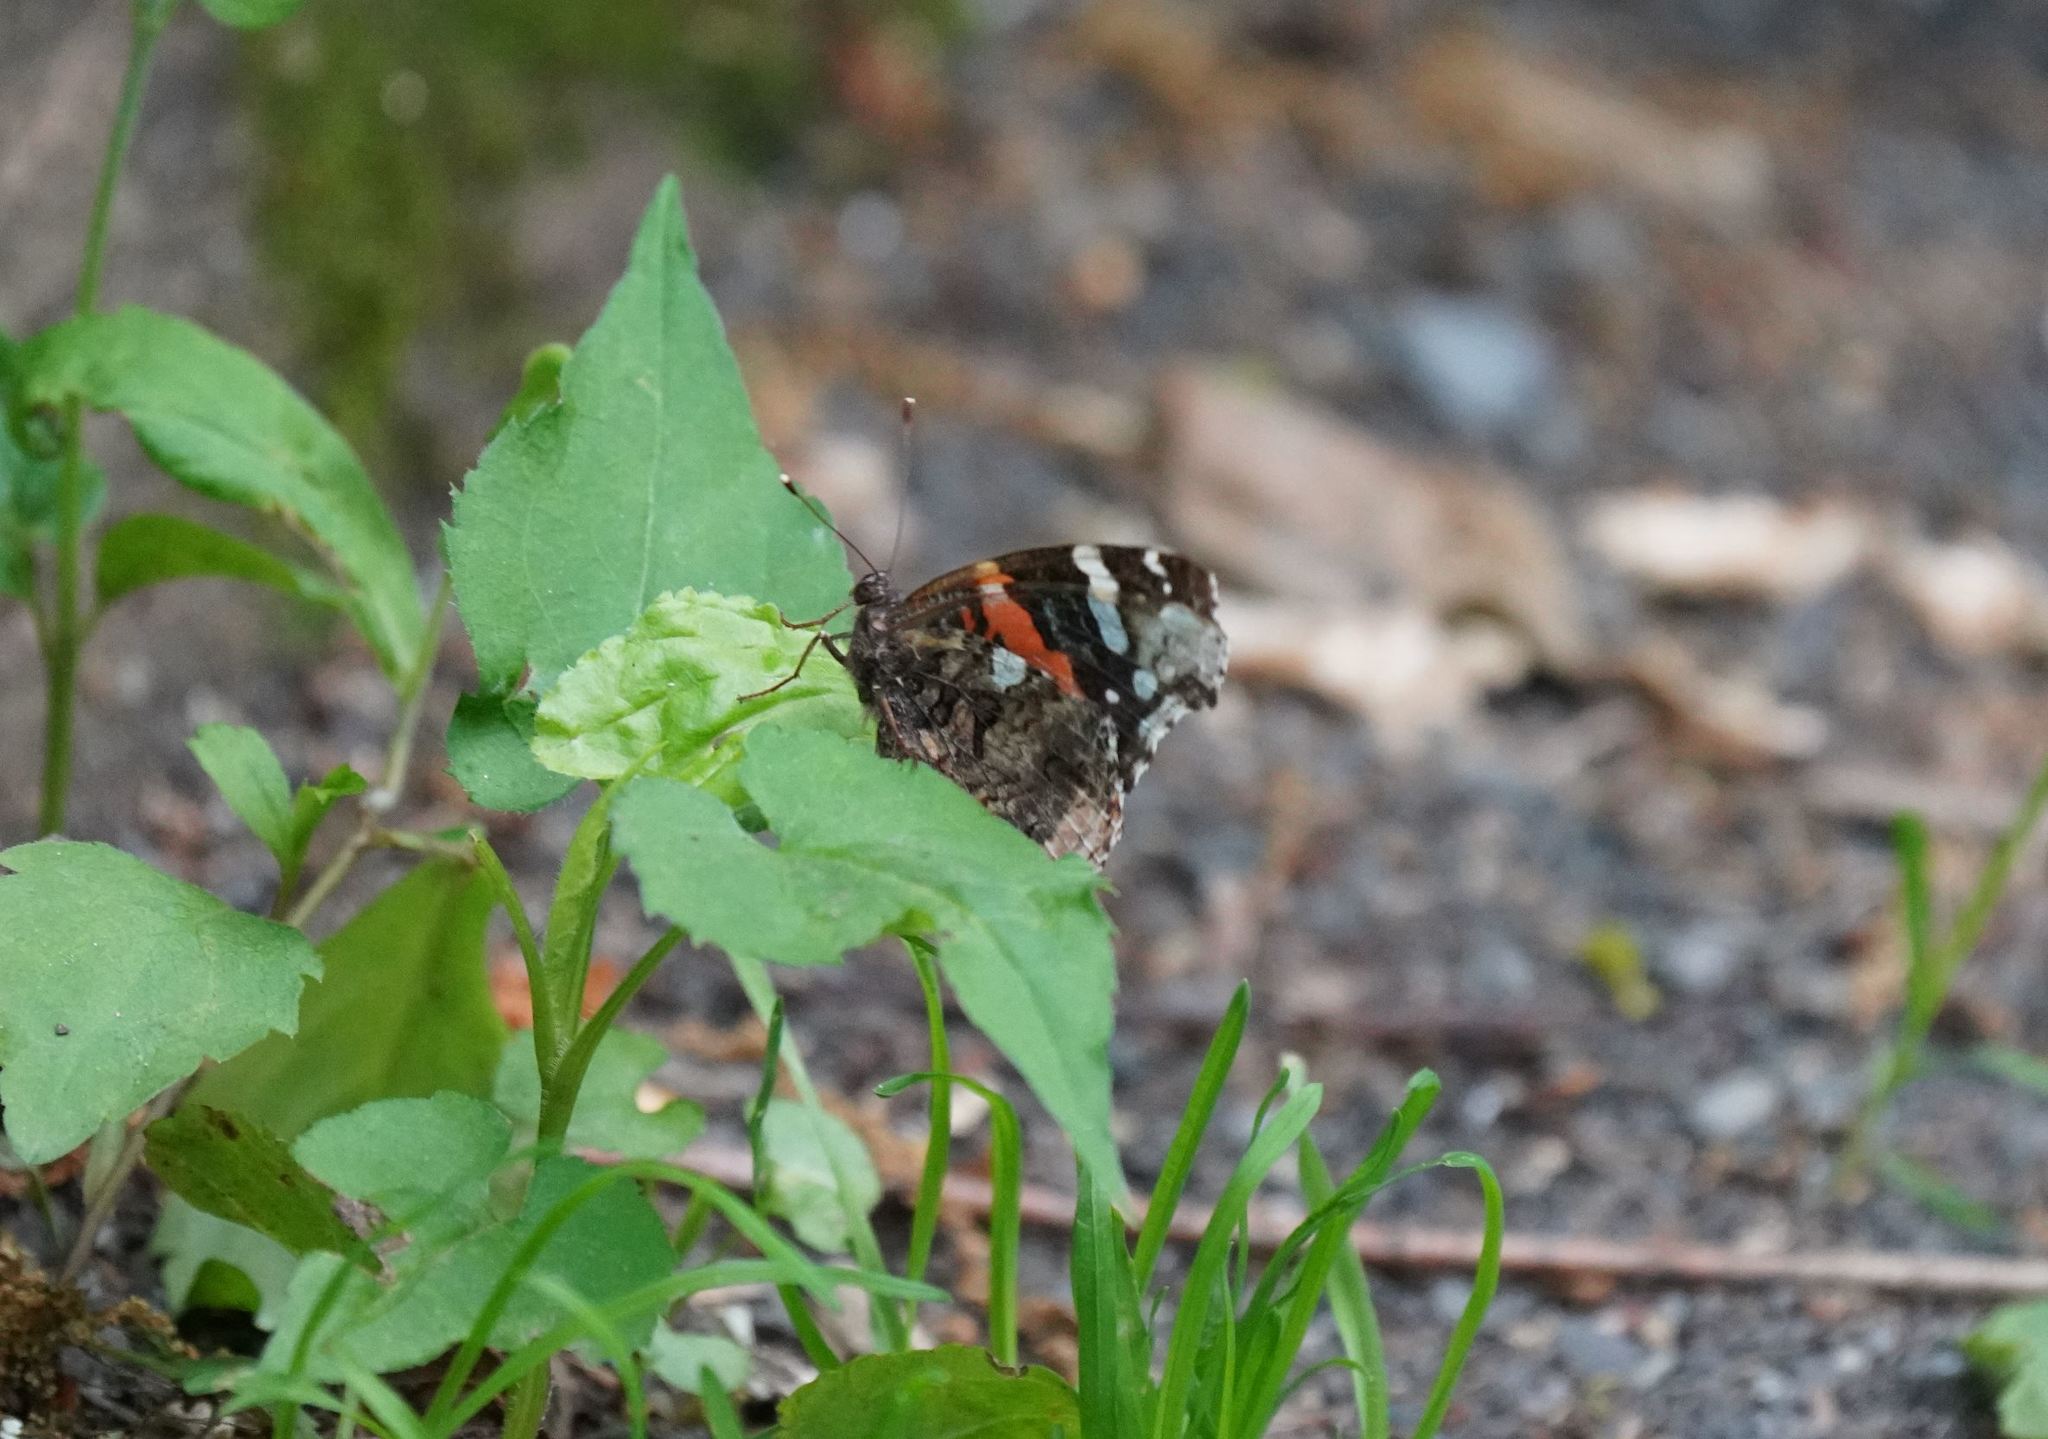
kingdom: Animalia
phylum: Arthropoda
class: Insecta
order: Lepidoptera
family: Nymphalidae
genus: Vanessa
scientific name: Vanessa atalanta
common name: Red admiral
